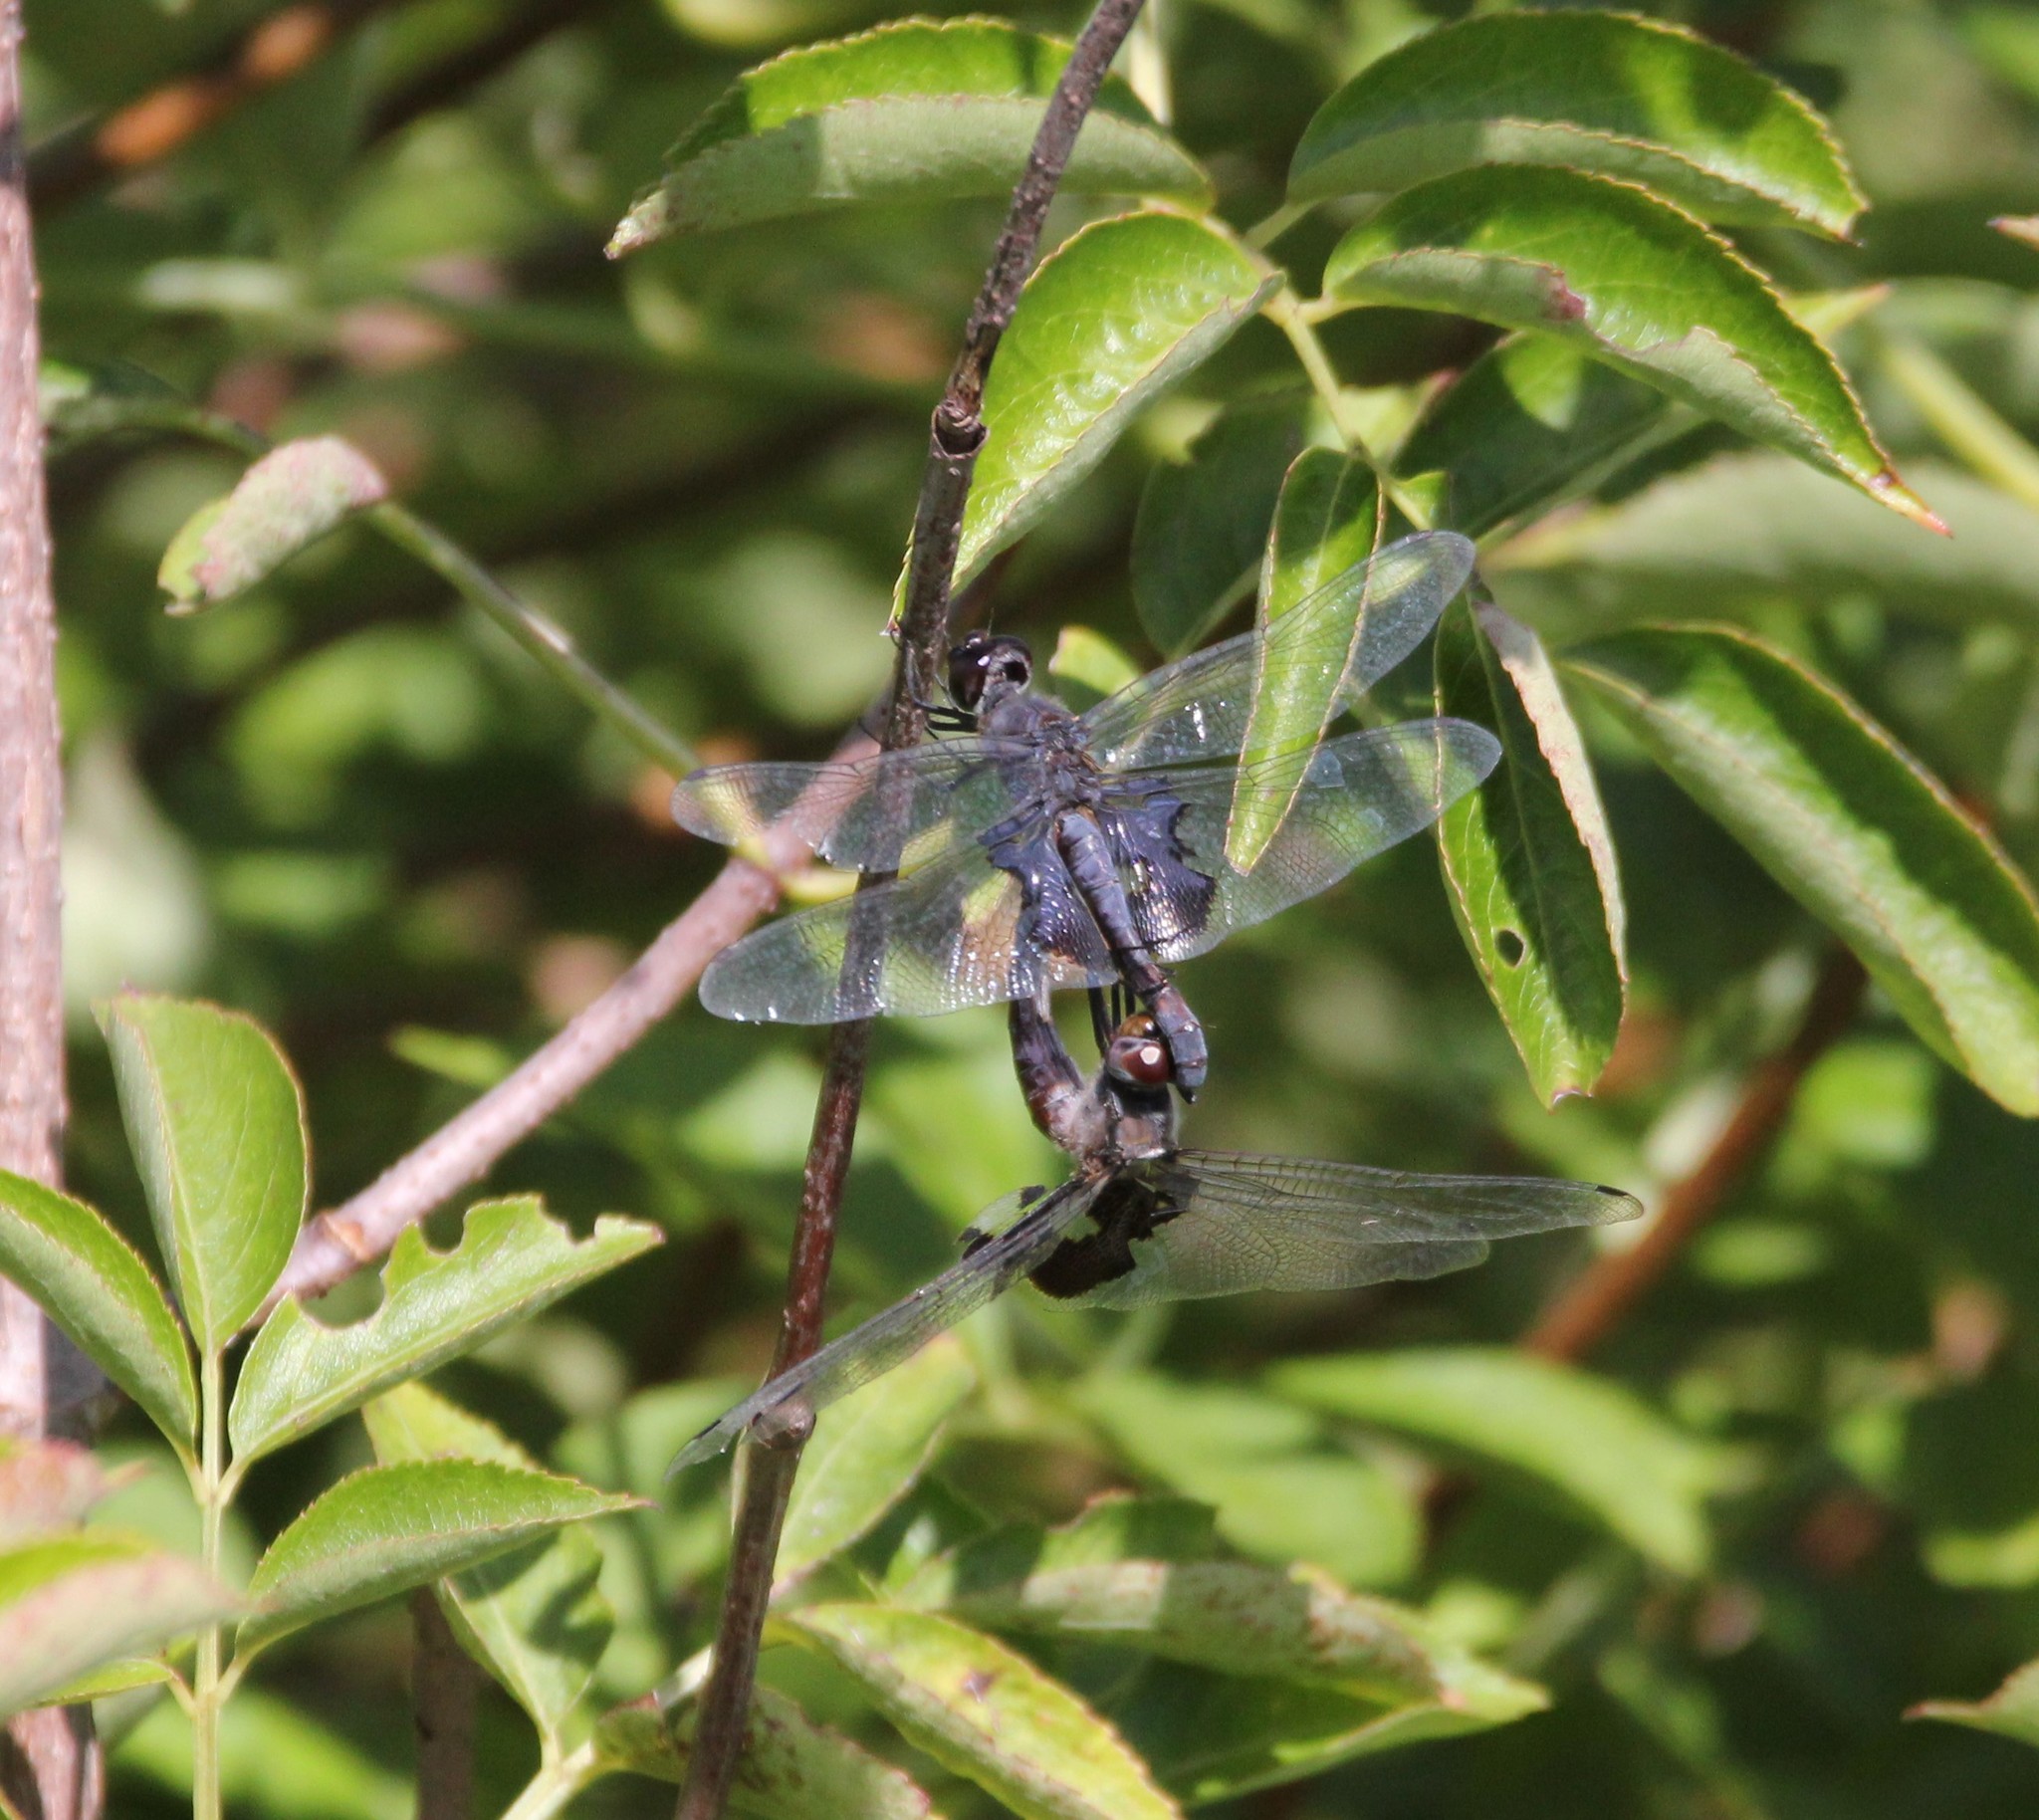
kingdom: Animalia
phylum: Arthropoda
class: Insecta
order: Odonata
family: Libellulidae
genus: Tramea
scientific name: Tramea lacerata
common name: Black saddlebags
